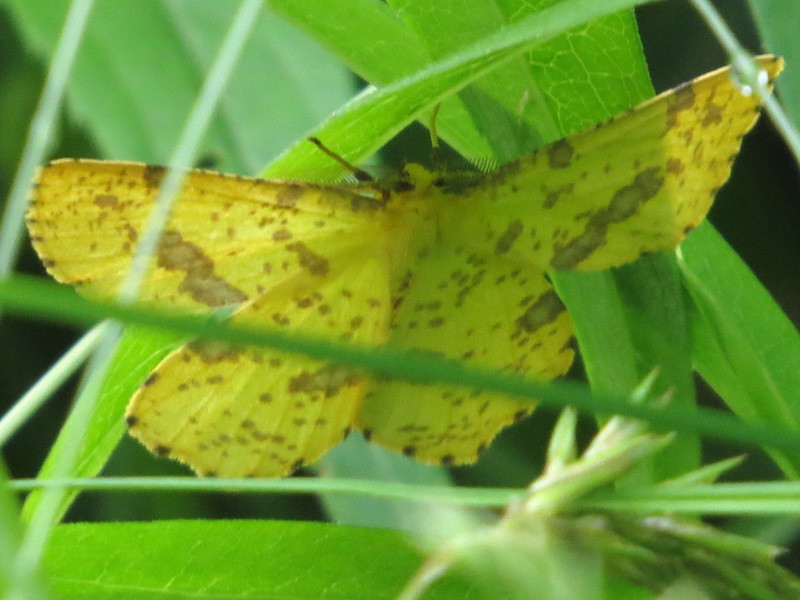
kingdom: Animalia
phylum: Arthropoda
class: Insecta
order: Lepidoptera
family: Geometridae
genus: Xanthotype
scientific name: Xanthotype
